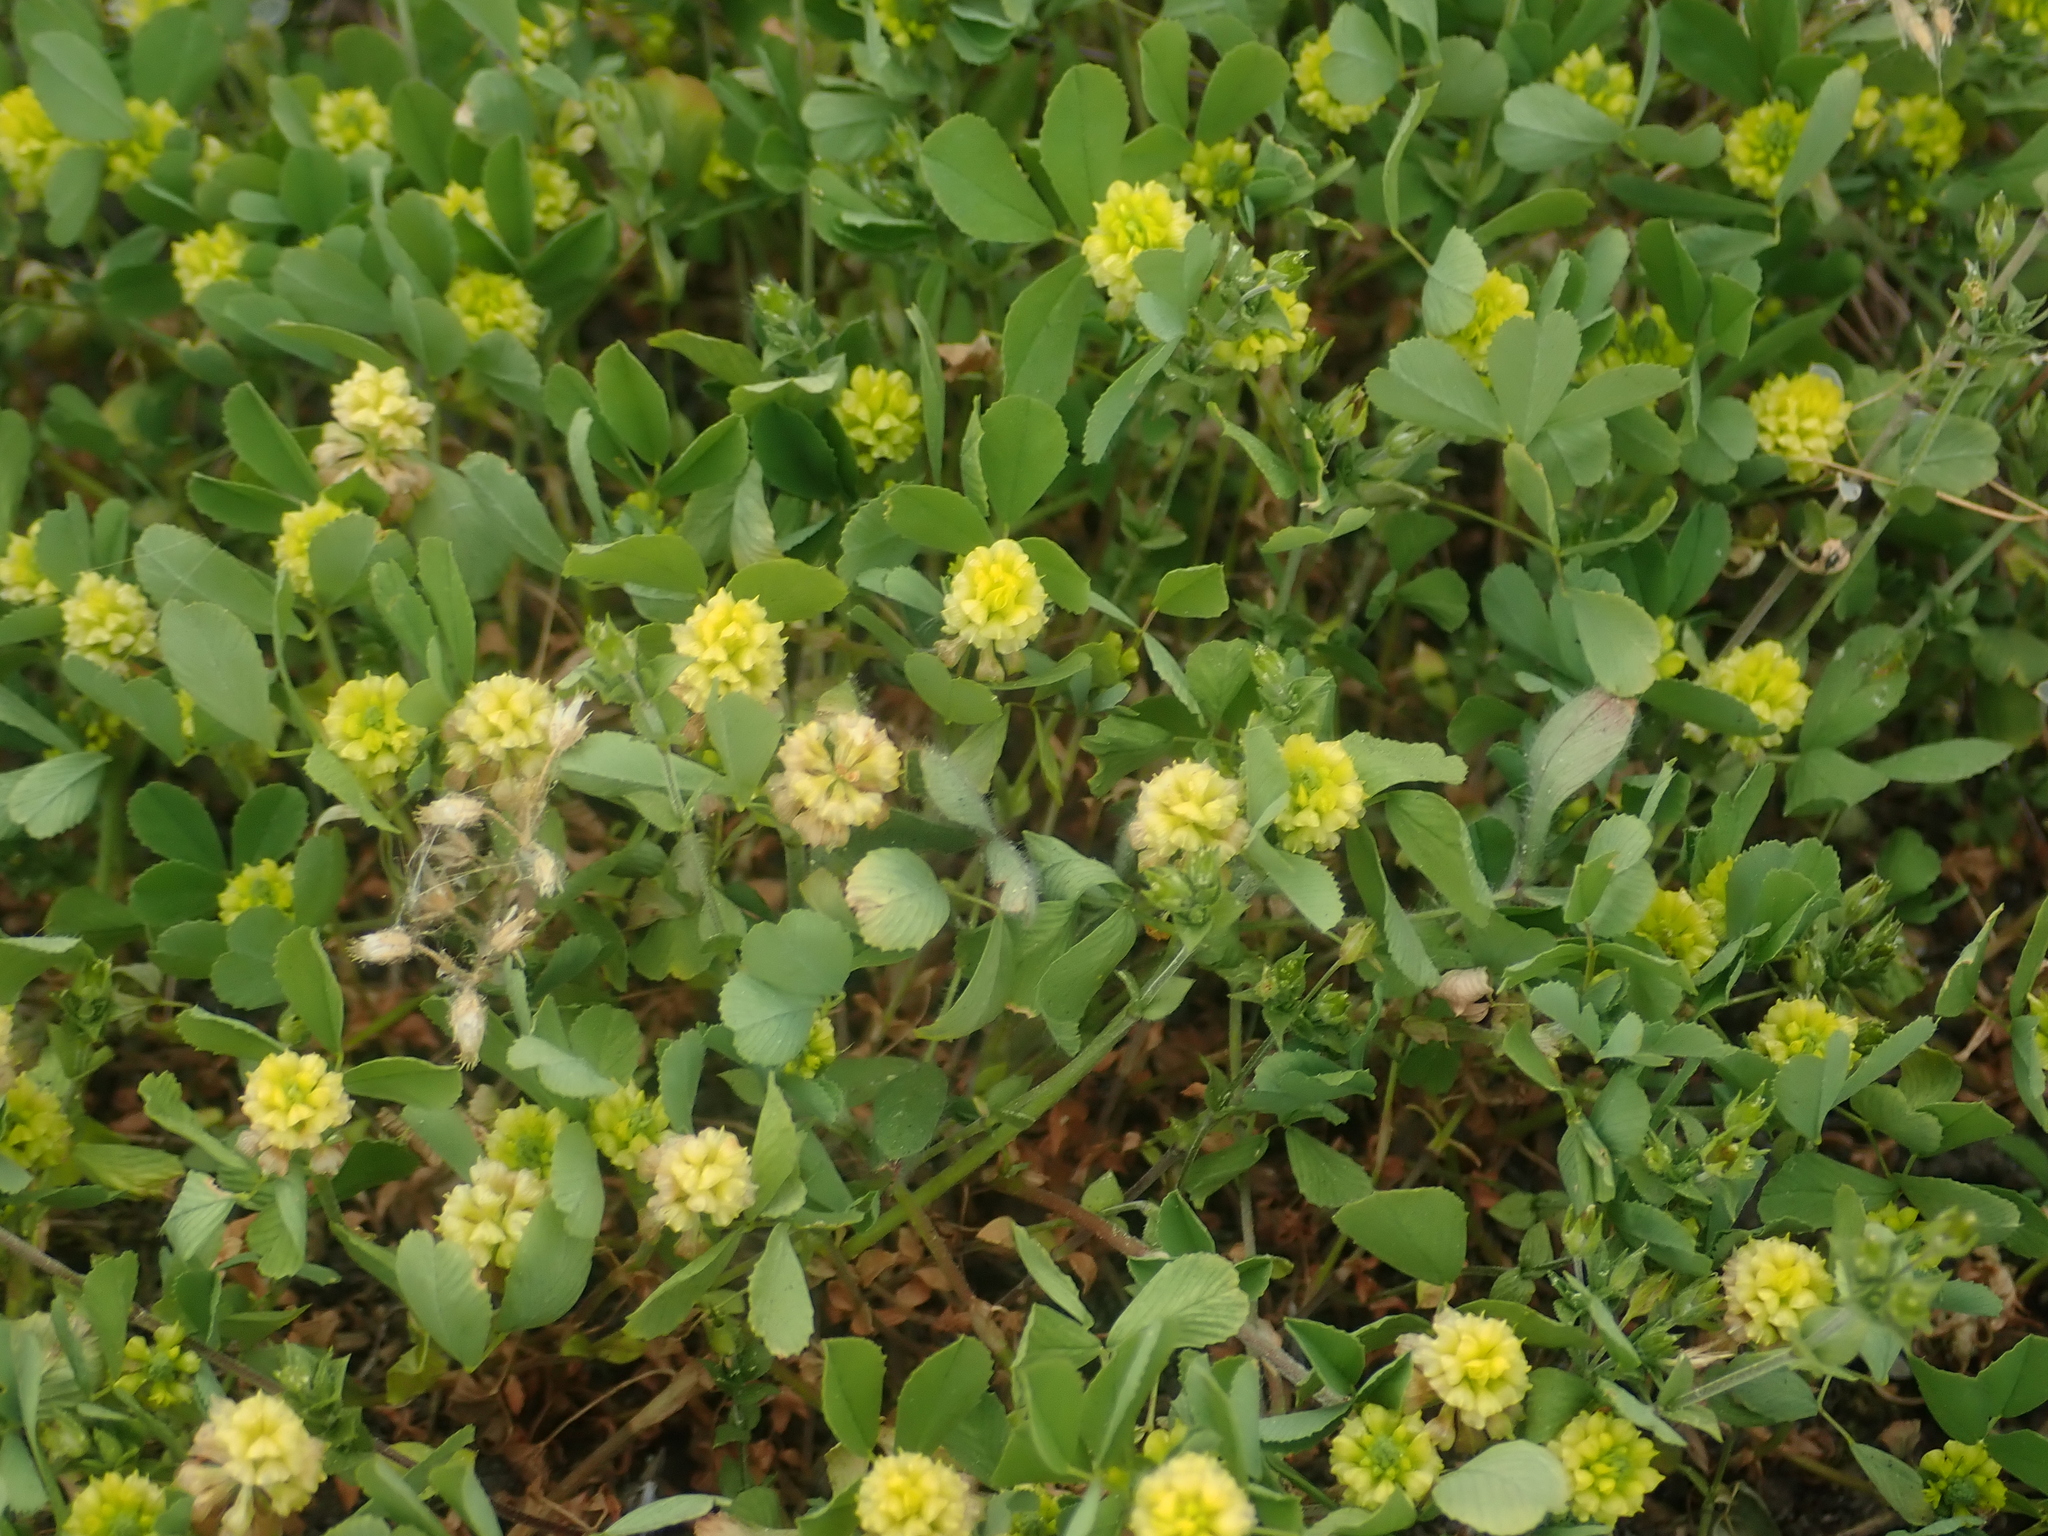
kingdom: Plantae
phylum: Tracheophyta
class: Magnoliopsida
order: Fabales
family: Fabaceae
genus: Trifolium
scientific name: Trifolium campestre
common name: Field clover
